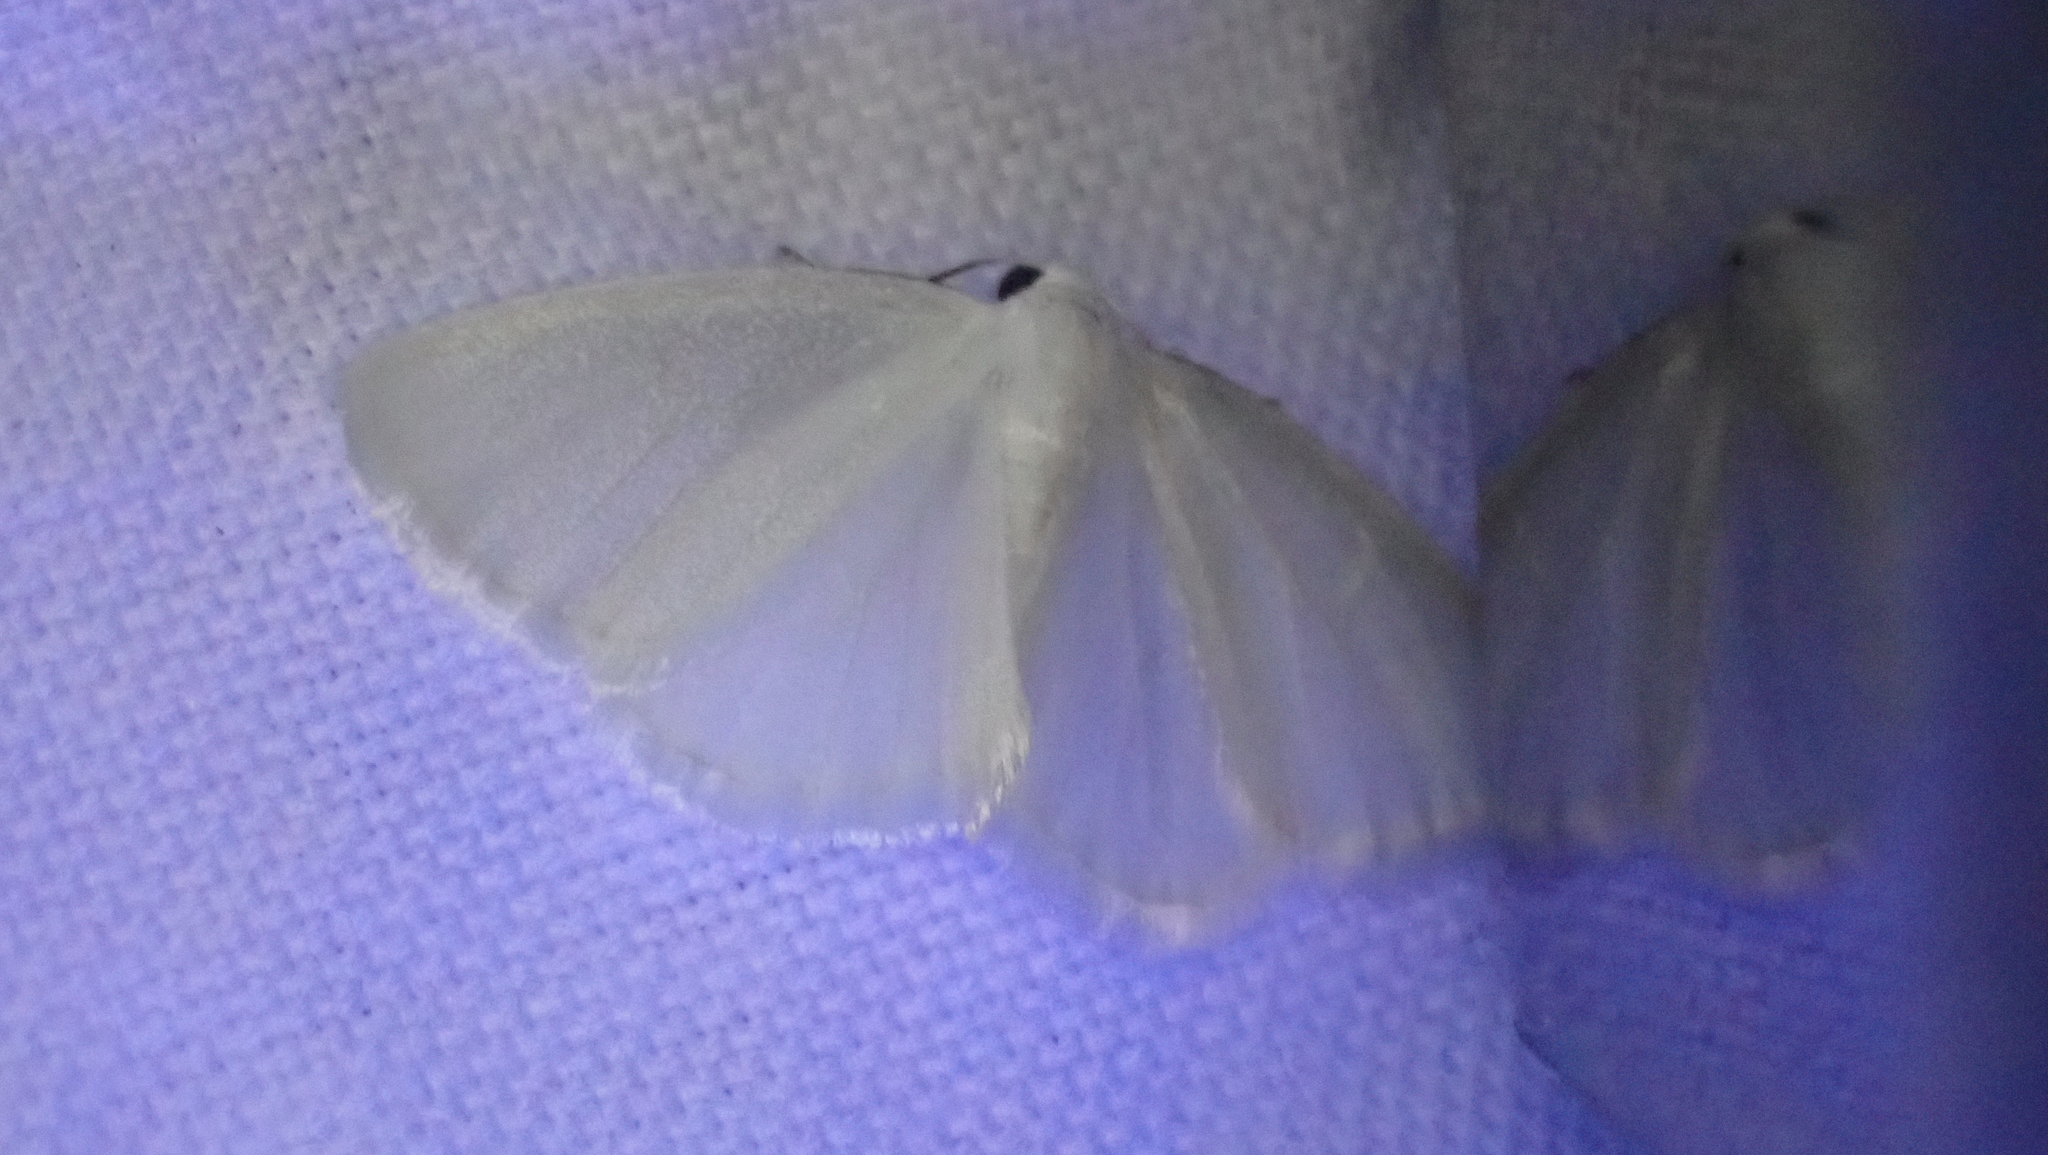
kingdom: Animalia
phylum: Arthropoda
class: Insecta
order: Lepidoptera
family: Geometridae
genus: Lomographa
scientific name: Lomographa vestaliata
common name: White spring moth
